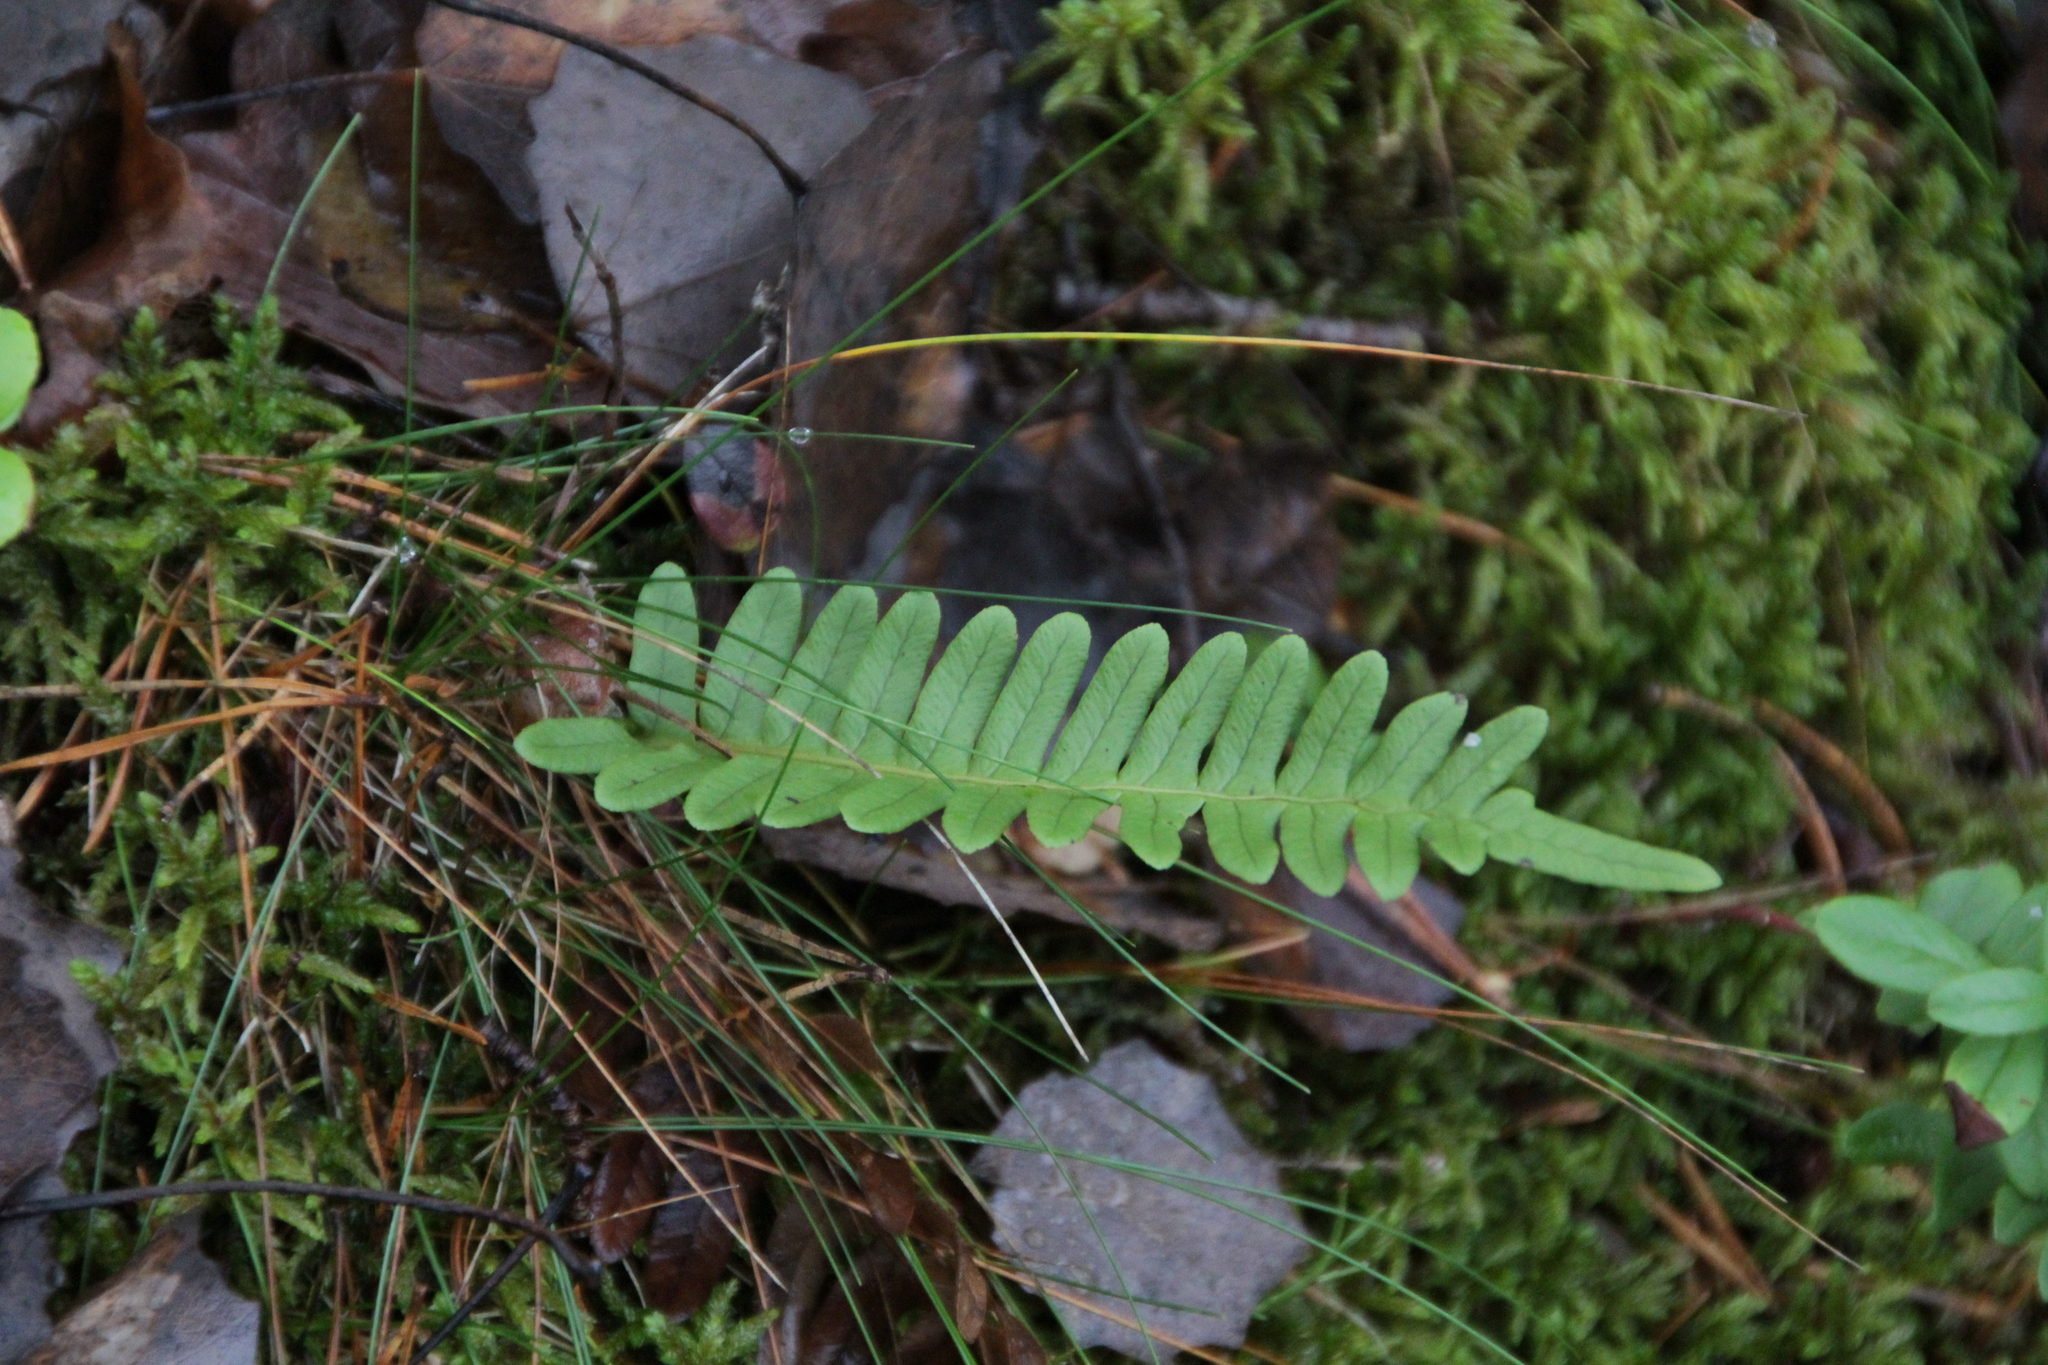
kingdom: Plantae
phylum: Tracheophyta
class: Polypodiopsida
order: Polypodiales
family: Polypodiaceae
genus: Polypodium
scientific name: Polypodium vulgare
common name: Common polypody
